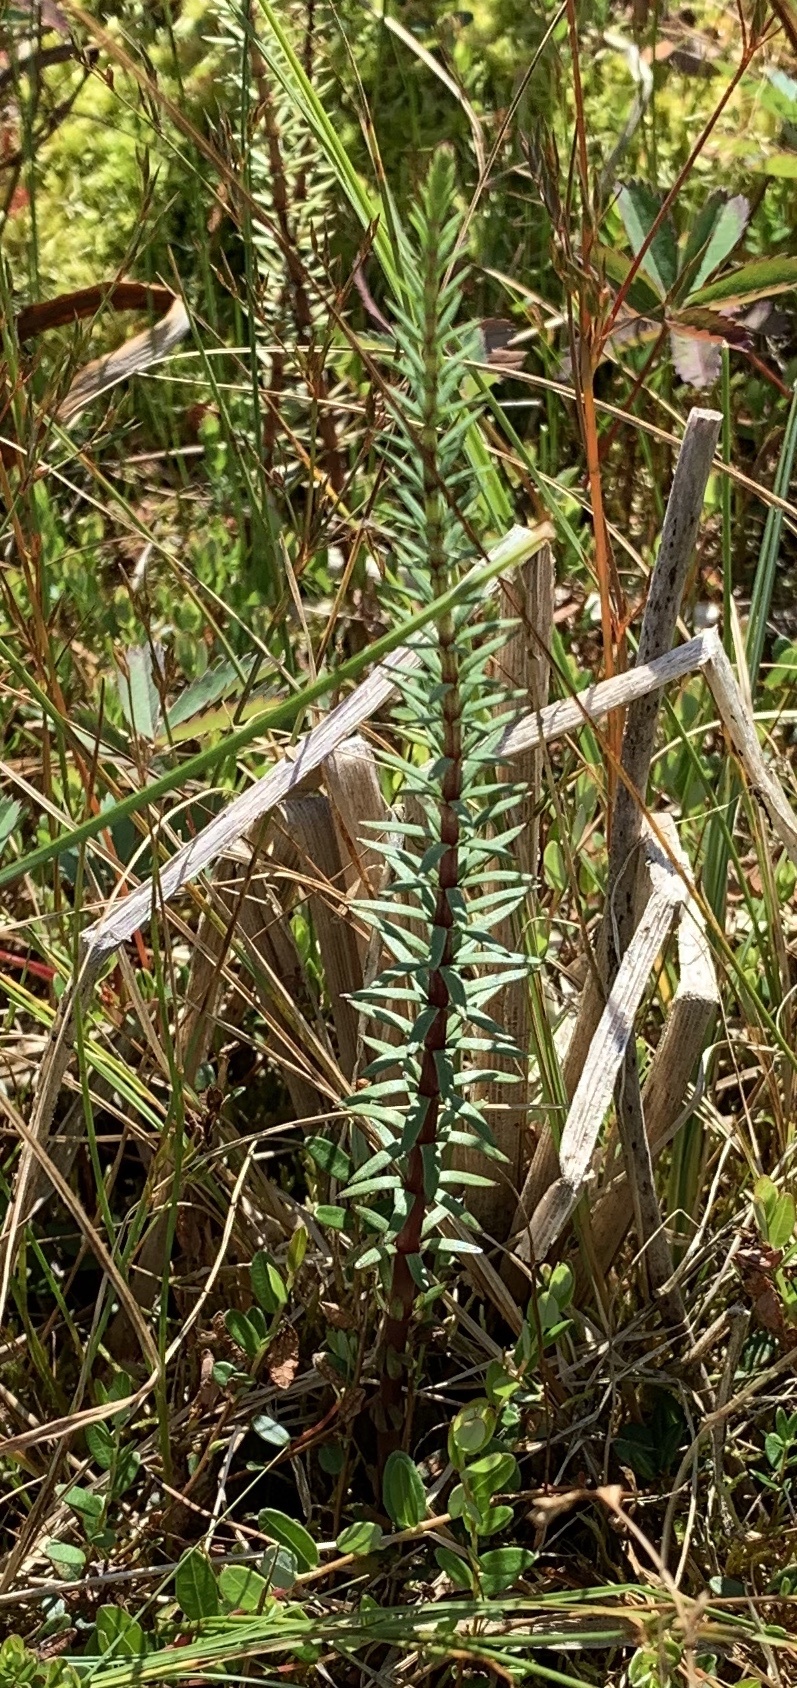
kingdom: Plantae
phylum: Tracheophyta
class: Magnoliopsida
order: Lamiales
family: Plantaginaceae
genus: Hippuris
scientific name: Hippuris vulgaris
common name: Mare's-tail
